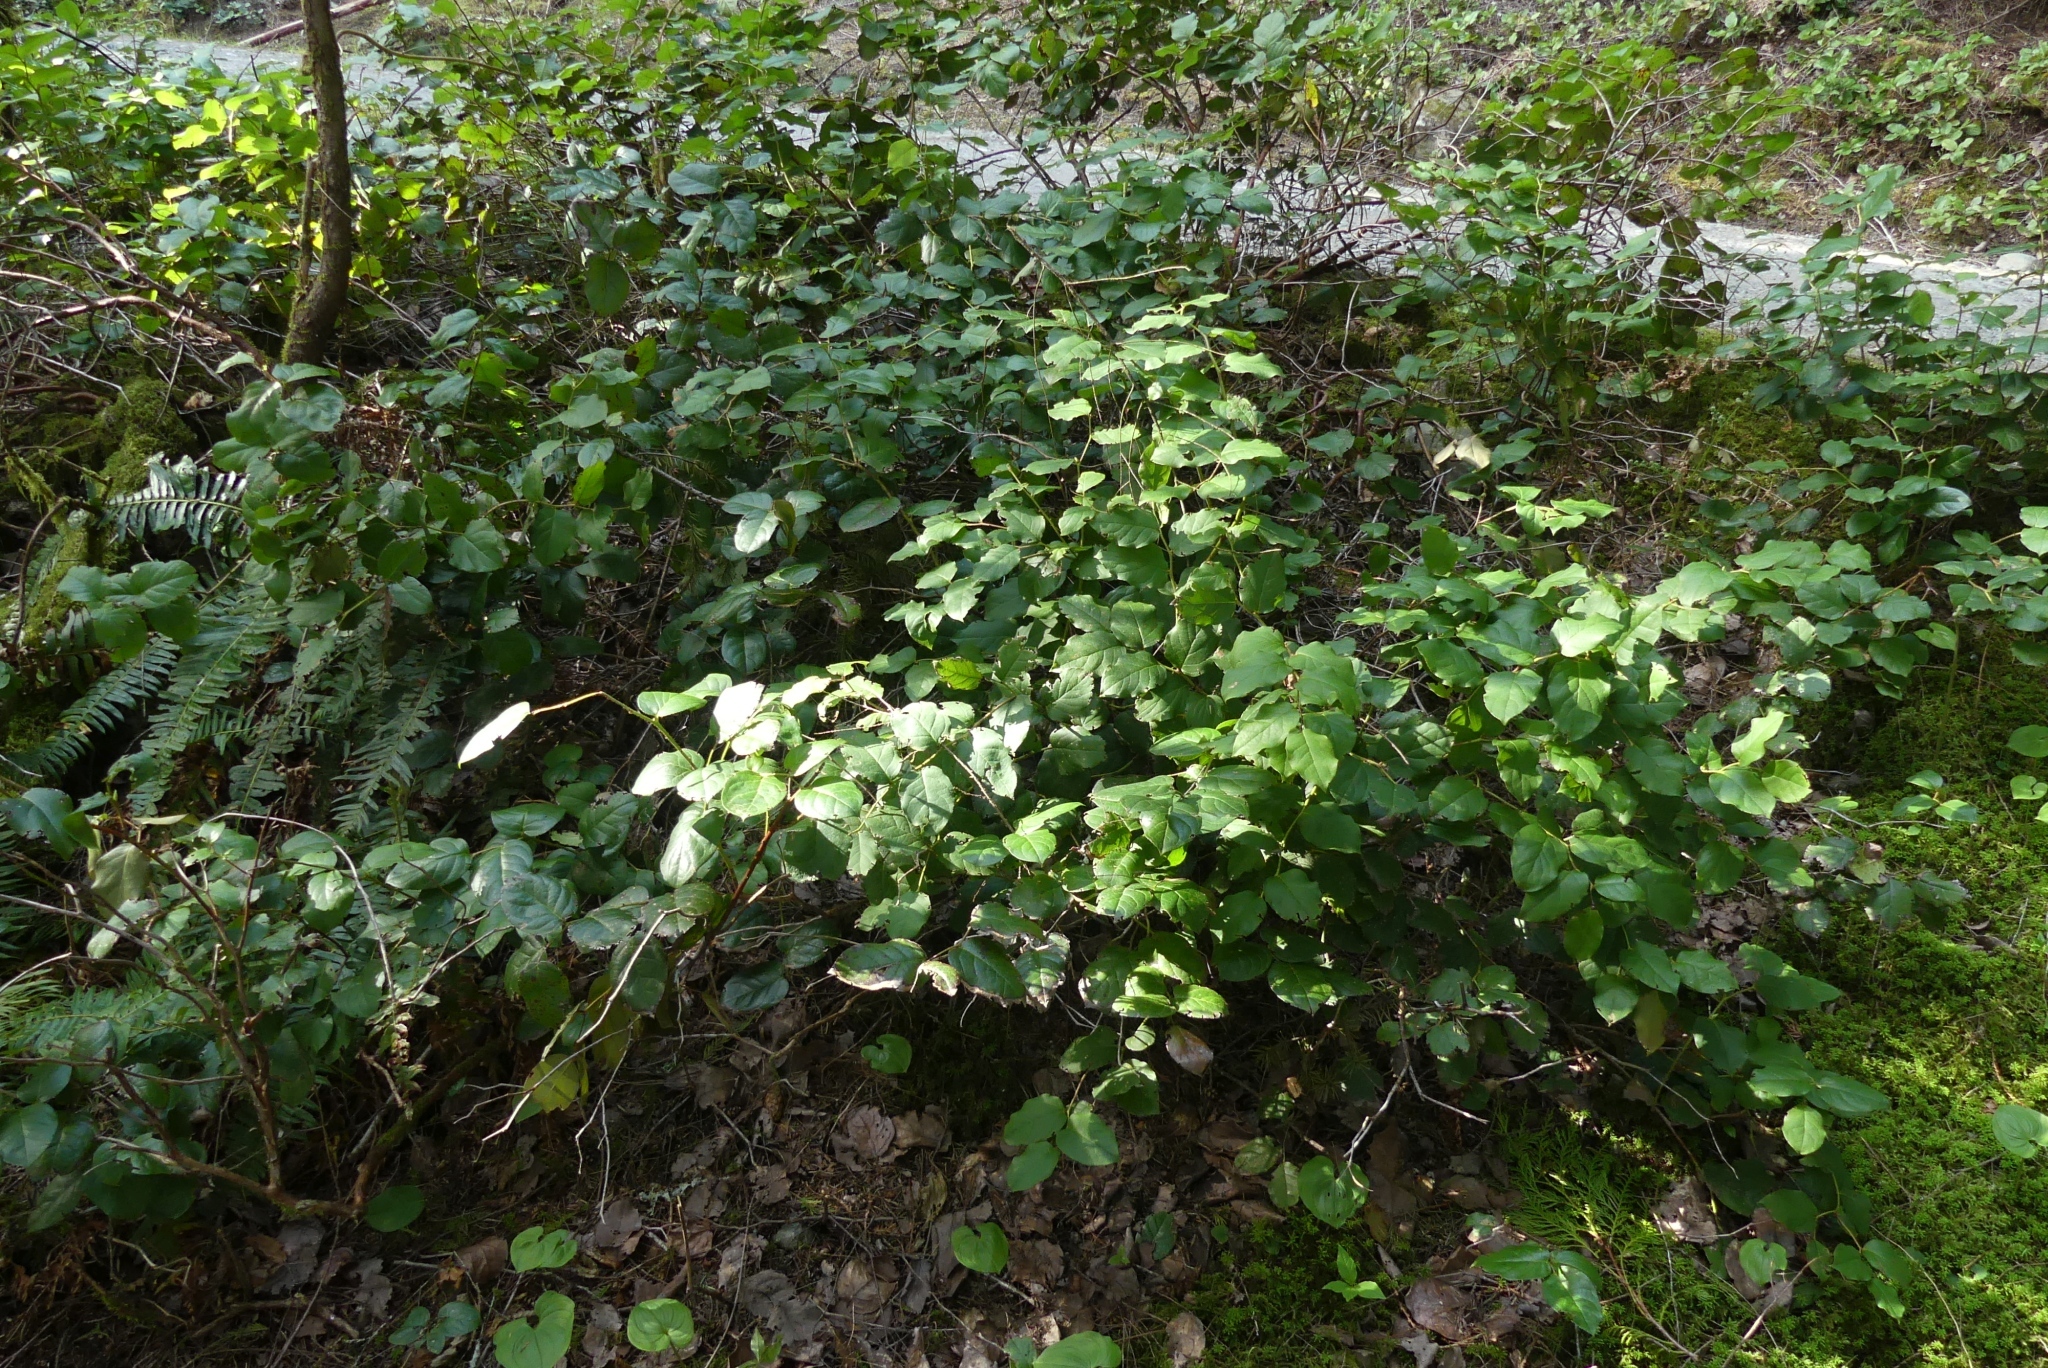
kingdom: Plantae
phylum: Tracheophyta
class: Magnoliopsida
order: Ericales
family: Ericaceae
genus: Gaultheria
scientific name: Gaultheria shallon
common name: Shallon
